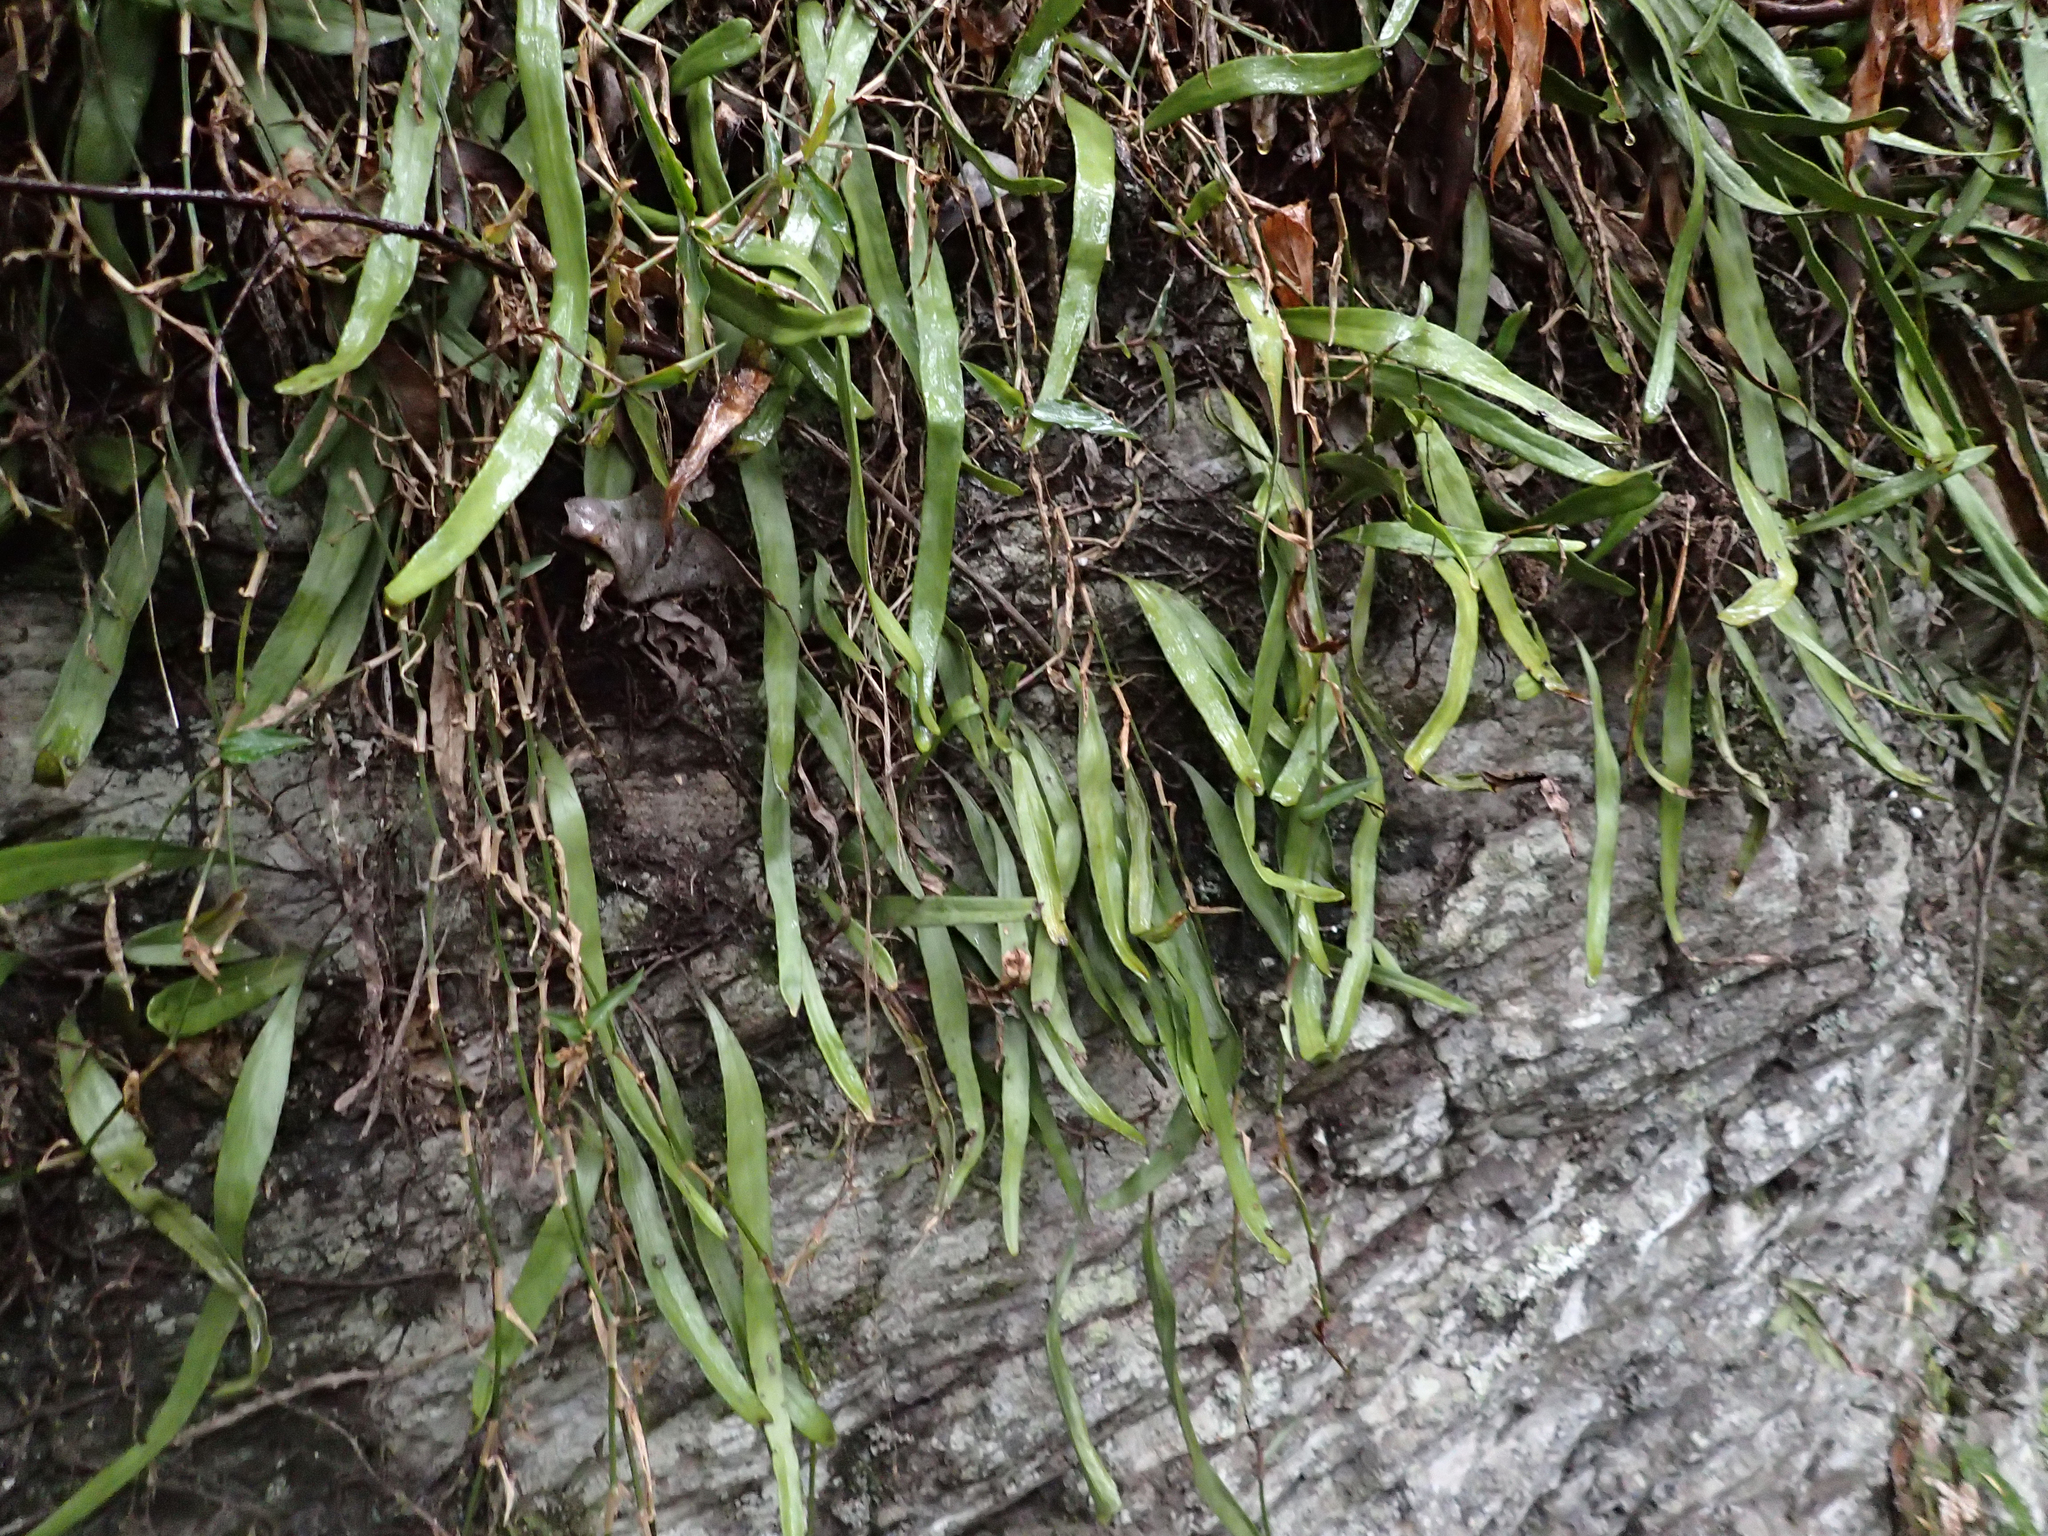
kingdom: Plantae
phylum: Tracheophyta
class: Polypodiopsida
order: Polypodiales
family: Polypodiaceae
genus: Dictymia
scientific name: Dictymia brownii
